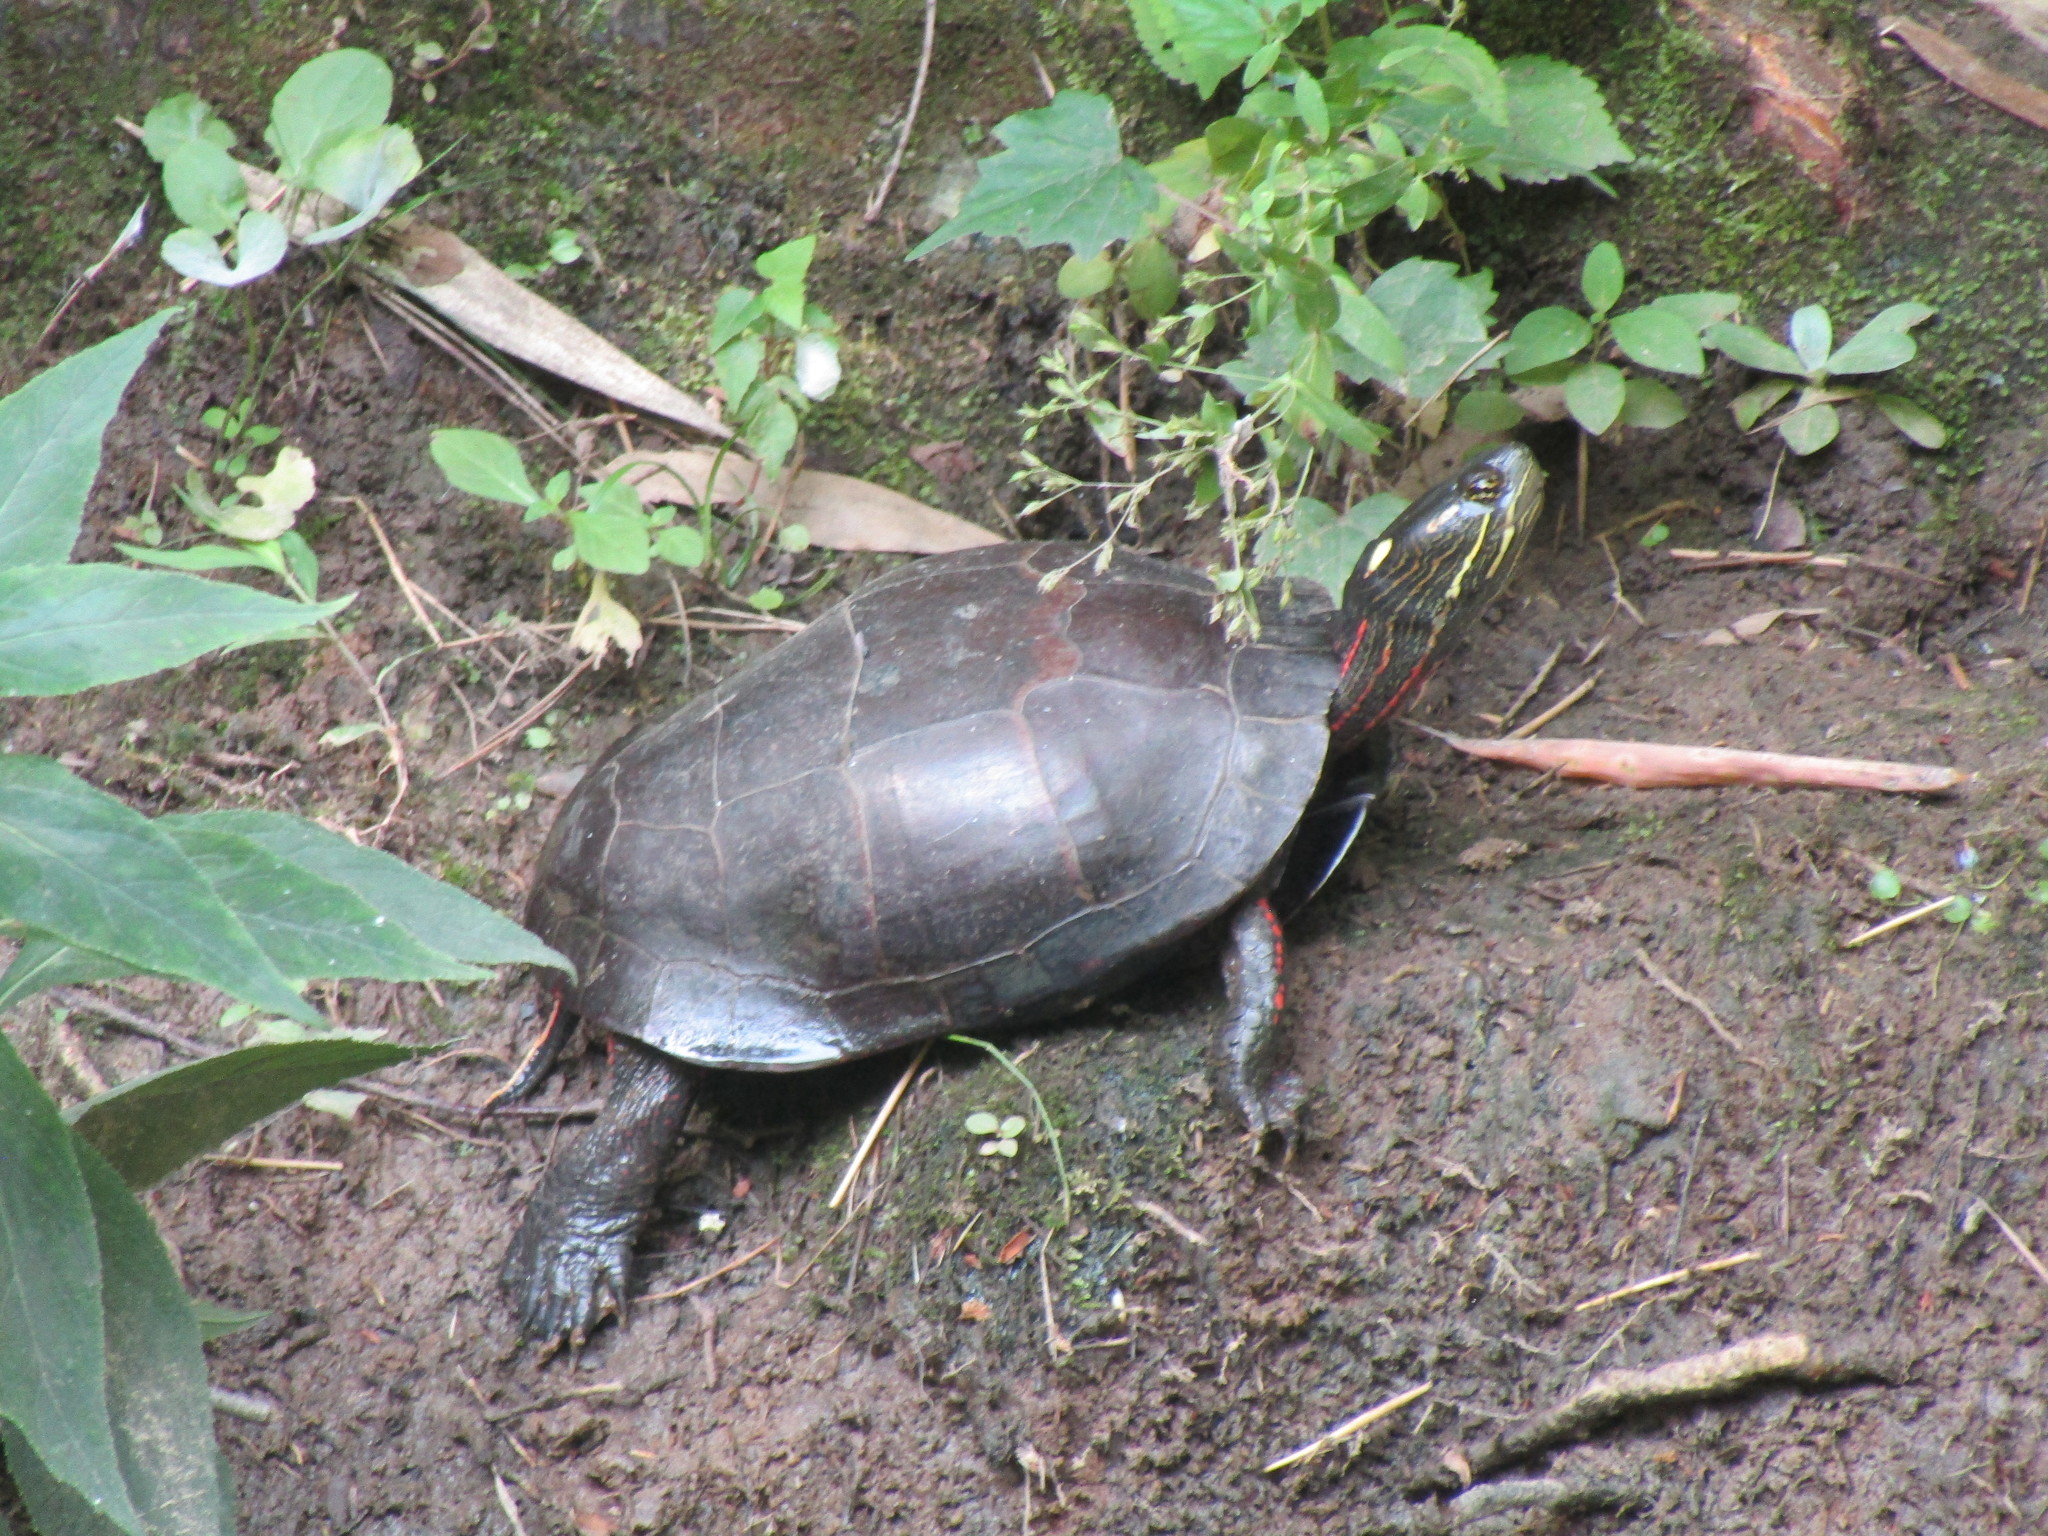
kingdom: Animalia
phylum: Chordata
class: Testudines
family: Emydidae
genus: Chrysemys
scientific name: Chrysemys picta
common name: Painted turtle
